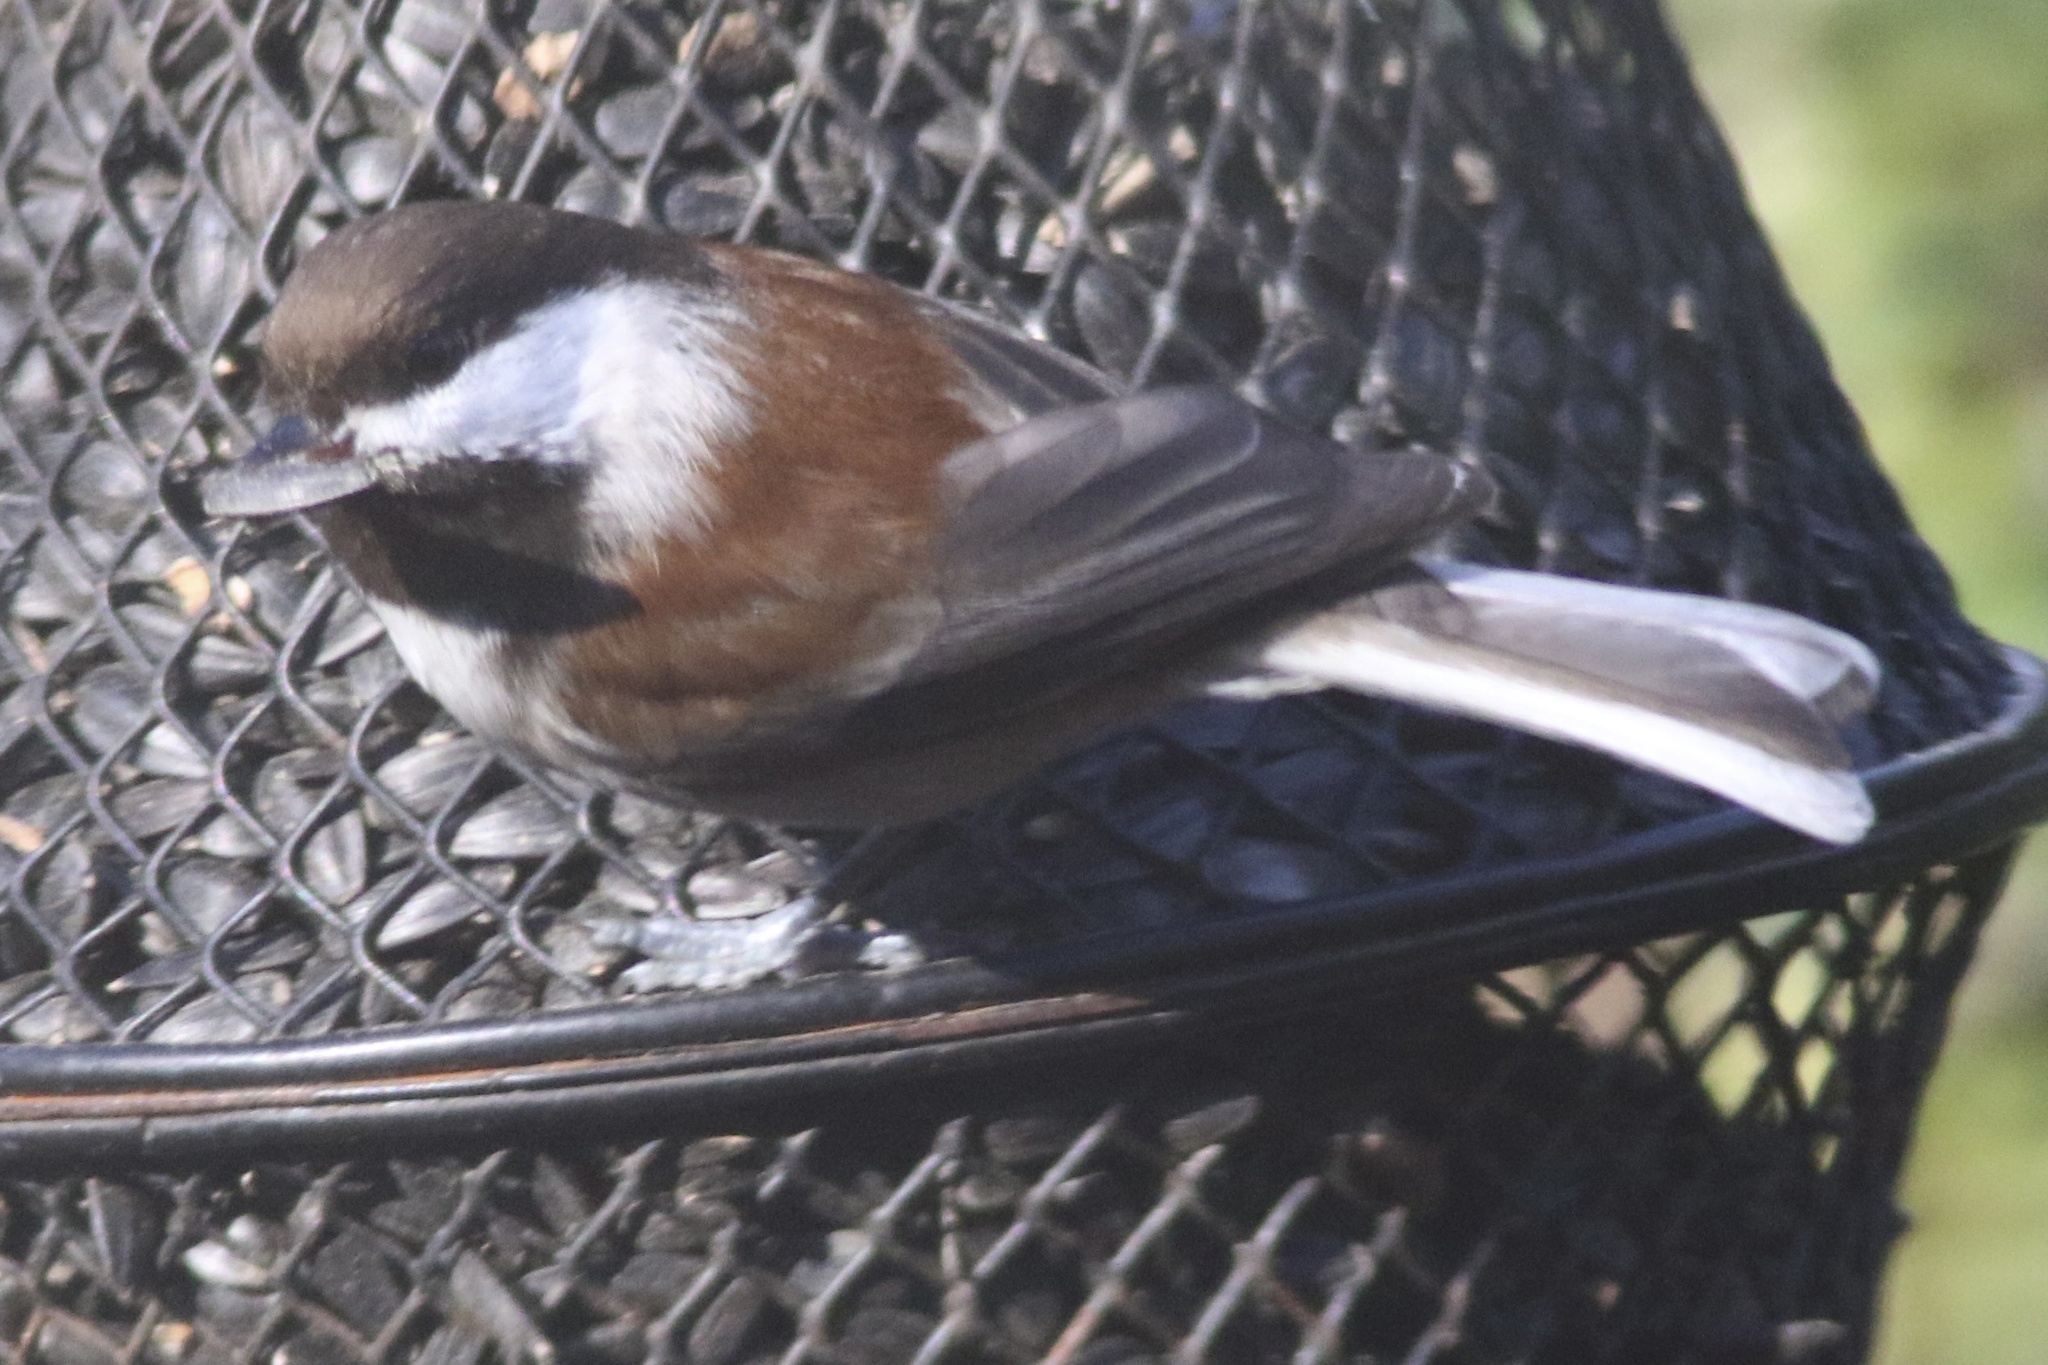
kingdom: Animalia
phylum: Chordata
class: Aves
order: Passeriformes
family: Paridae
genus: Poecile
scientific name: Poecile rufescens
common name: Chestnut-backed chickadee
